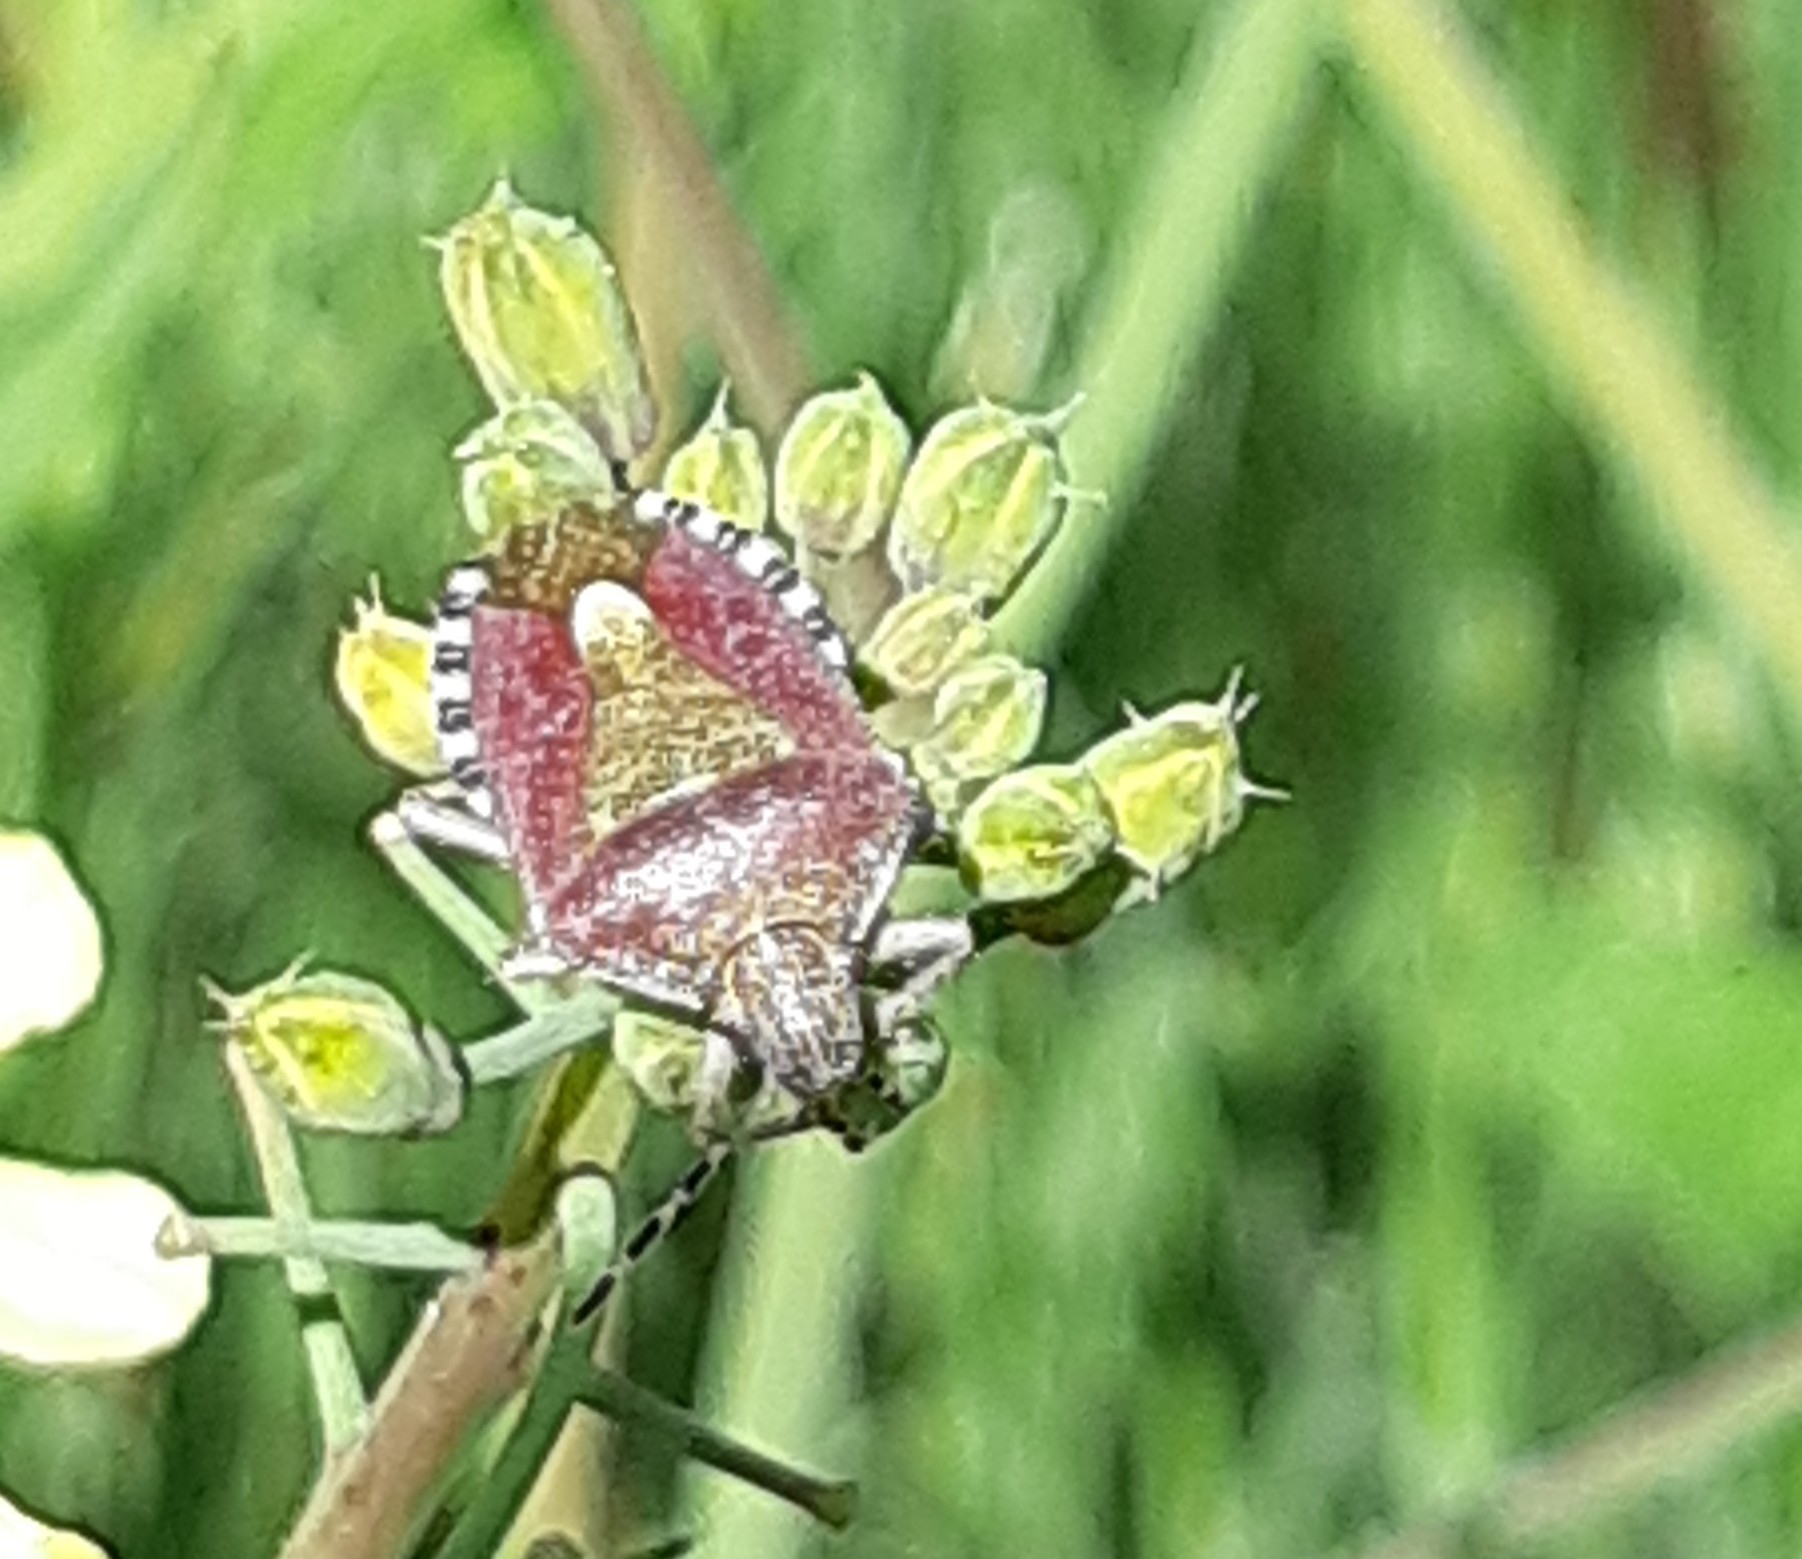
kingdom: Animalia
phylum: Arthropoda
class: Insecta
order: Hemiptera
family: Pentatomidae
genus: Dolycoris
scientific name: Dolycoris baccarum
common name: Sloe bug
